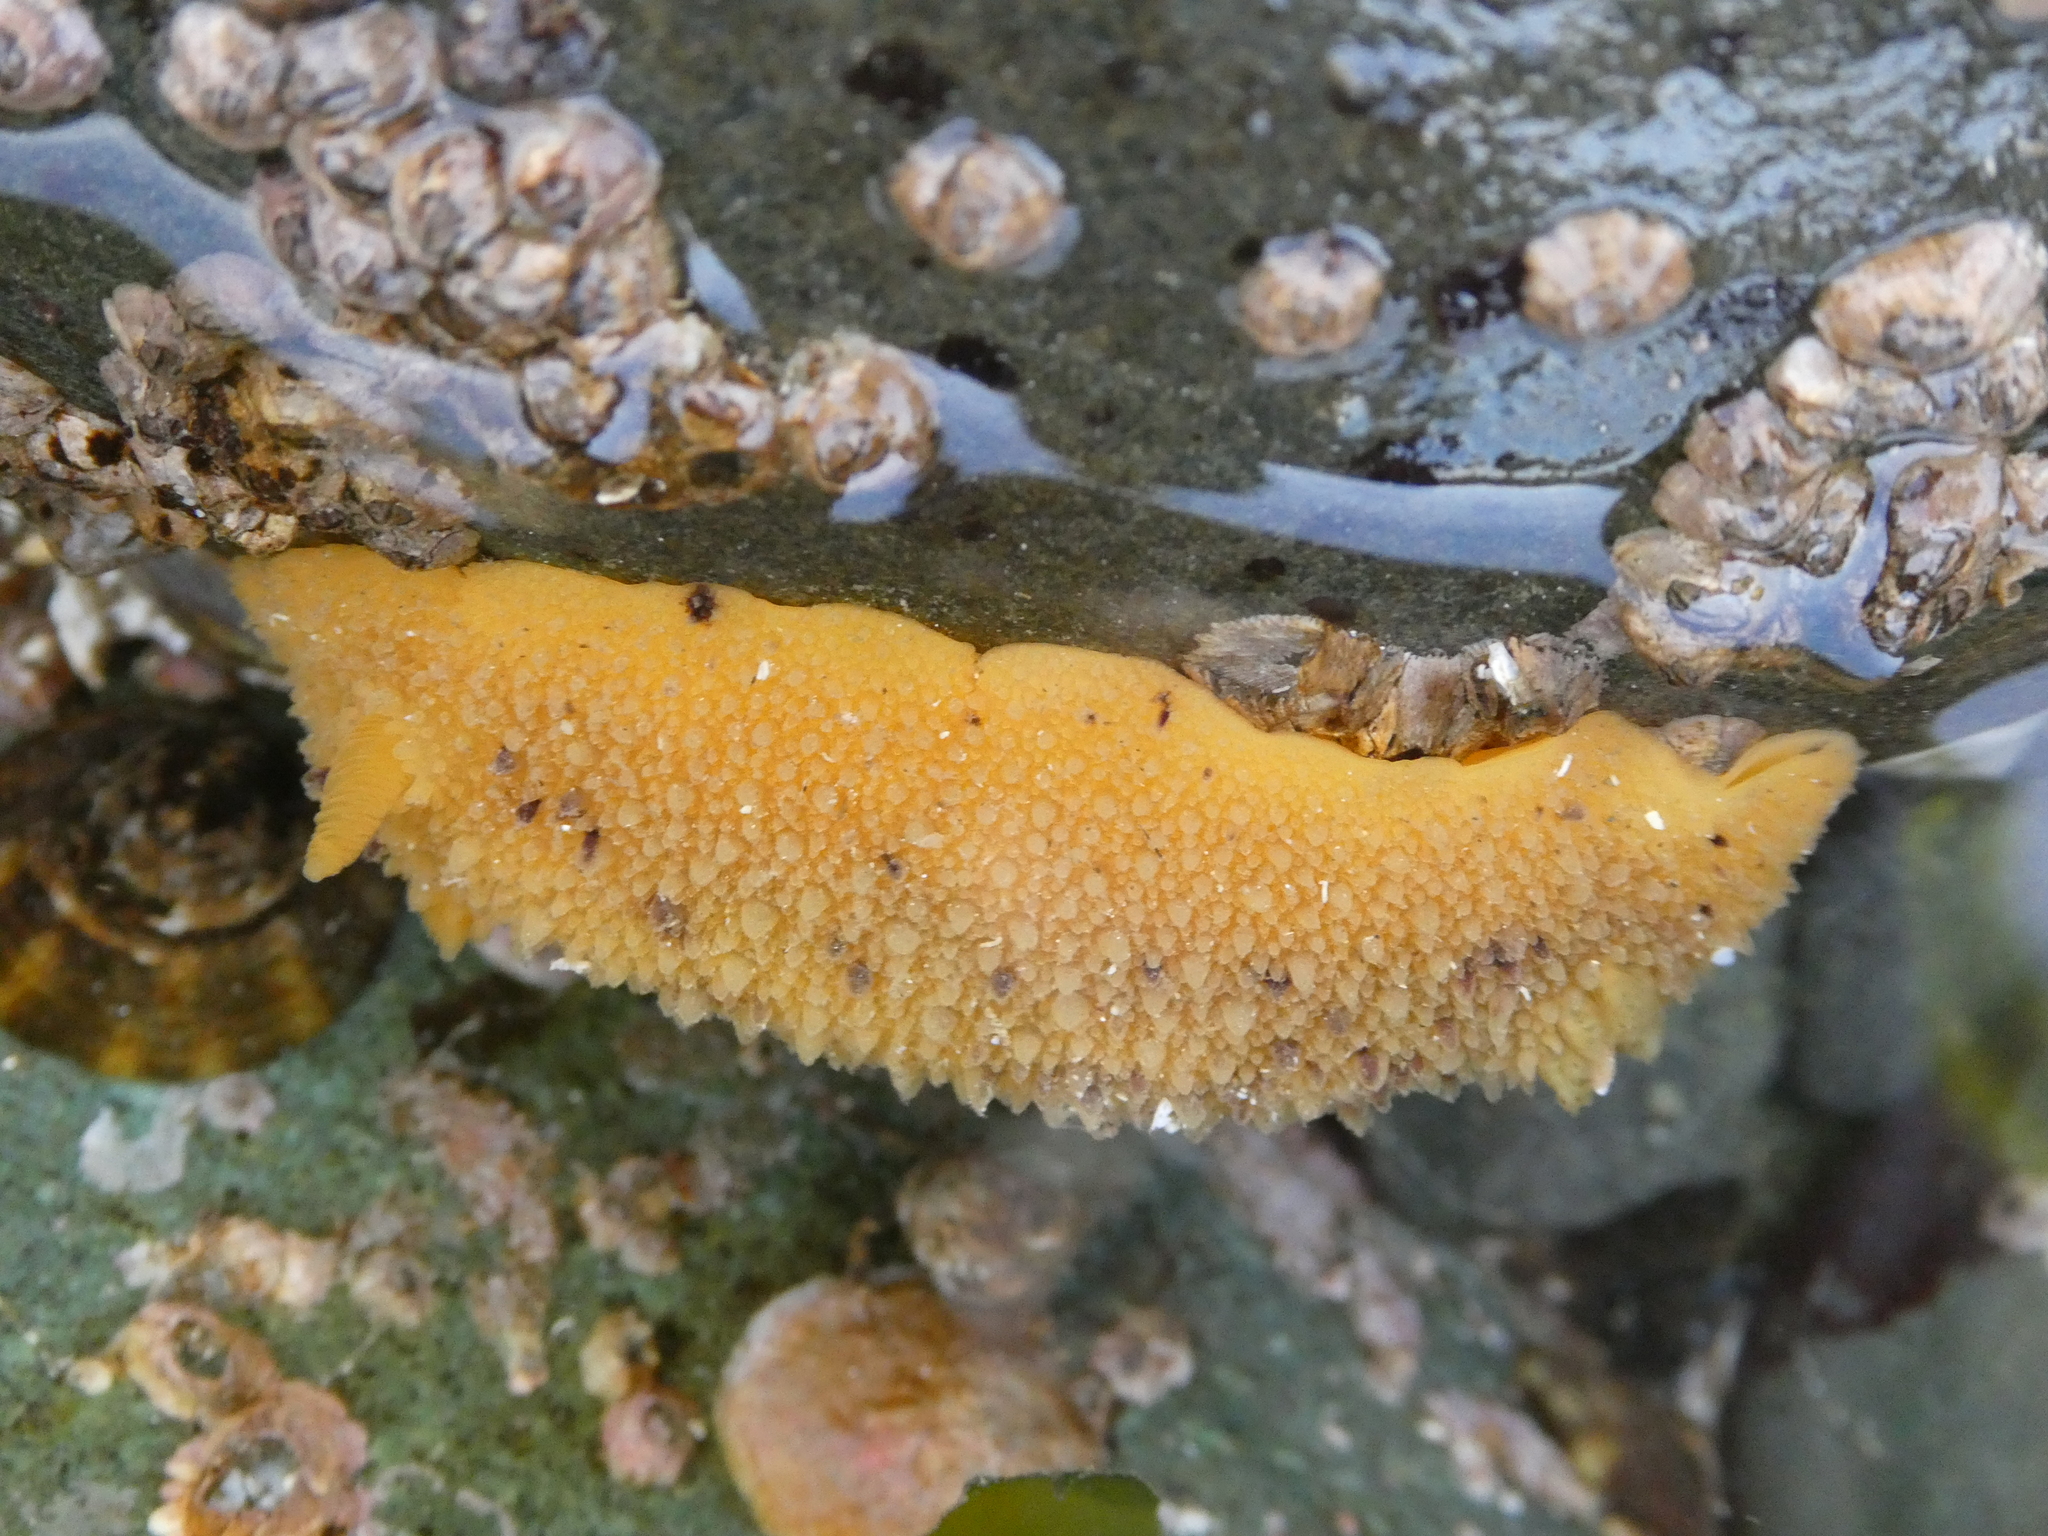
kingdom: Animalia
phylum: Mollusca
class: Gastropoda
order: Nudibranchia
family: Dorididae
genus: Doris
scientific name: Doris montereyensis
